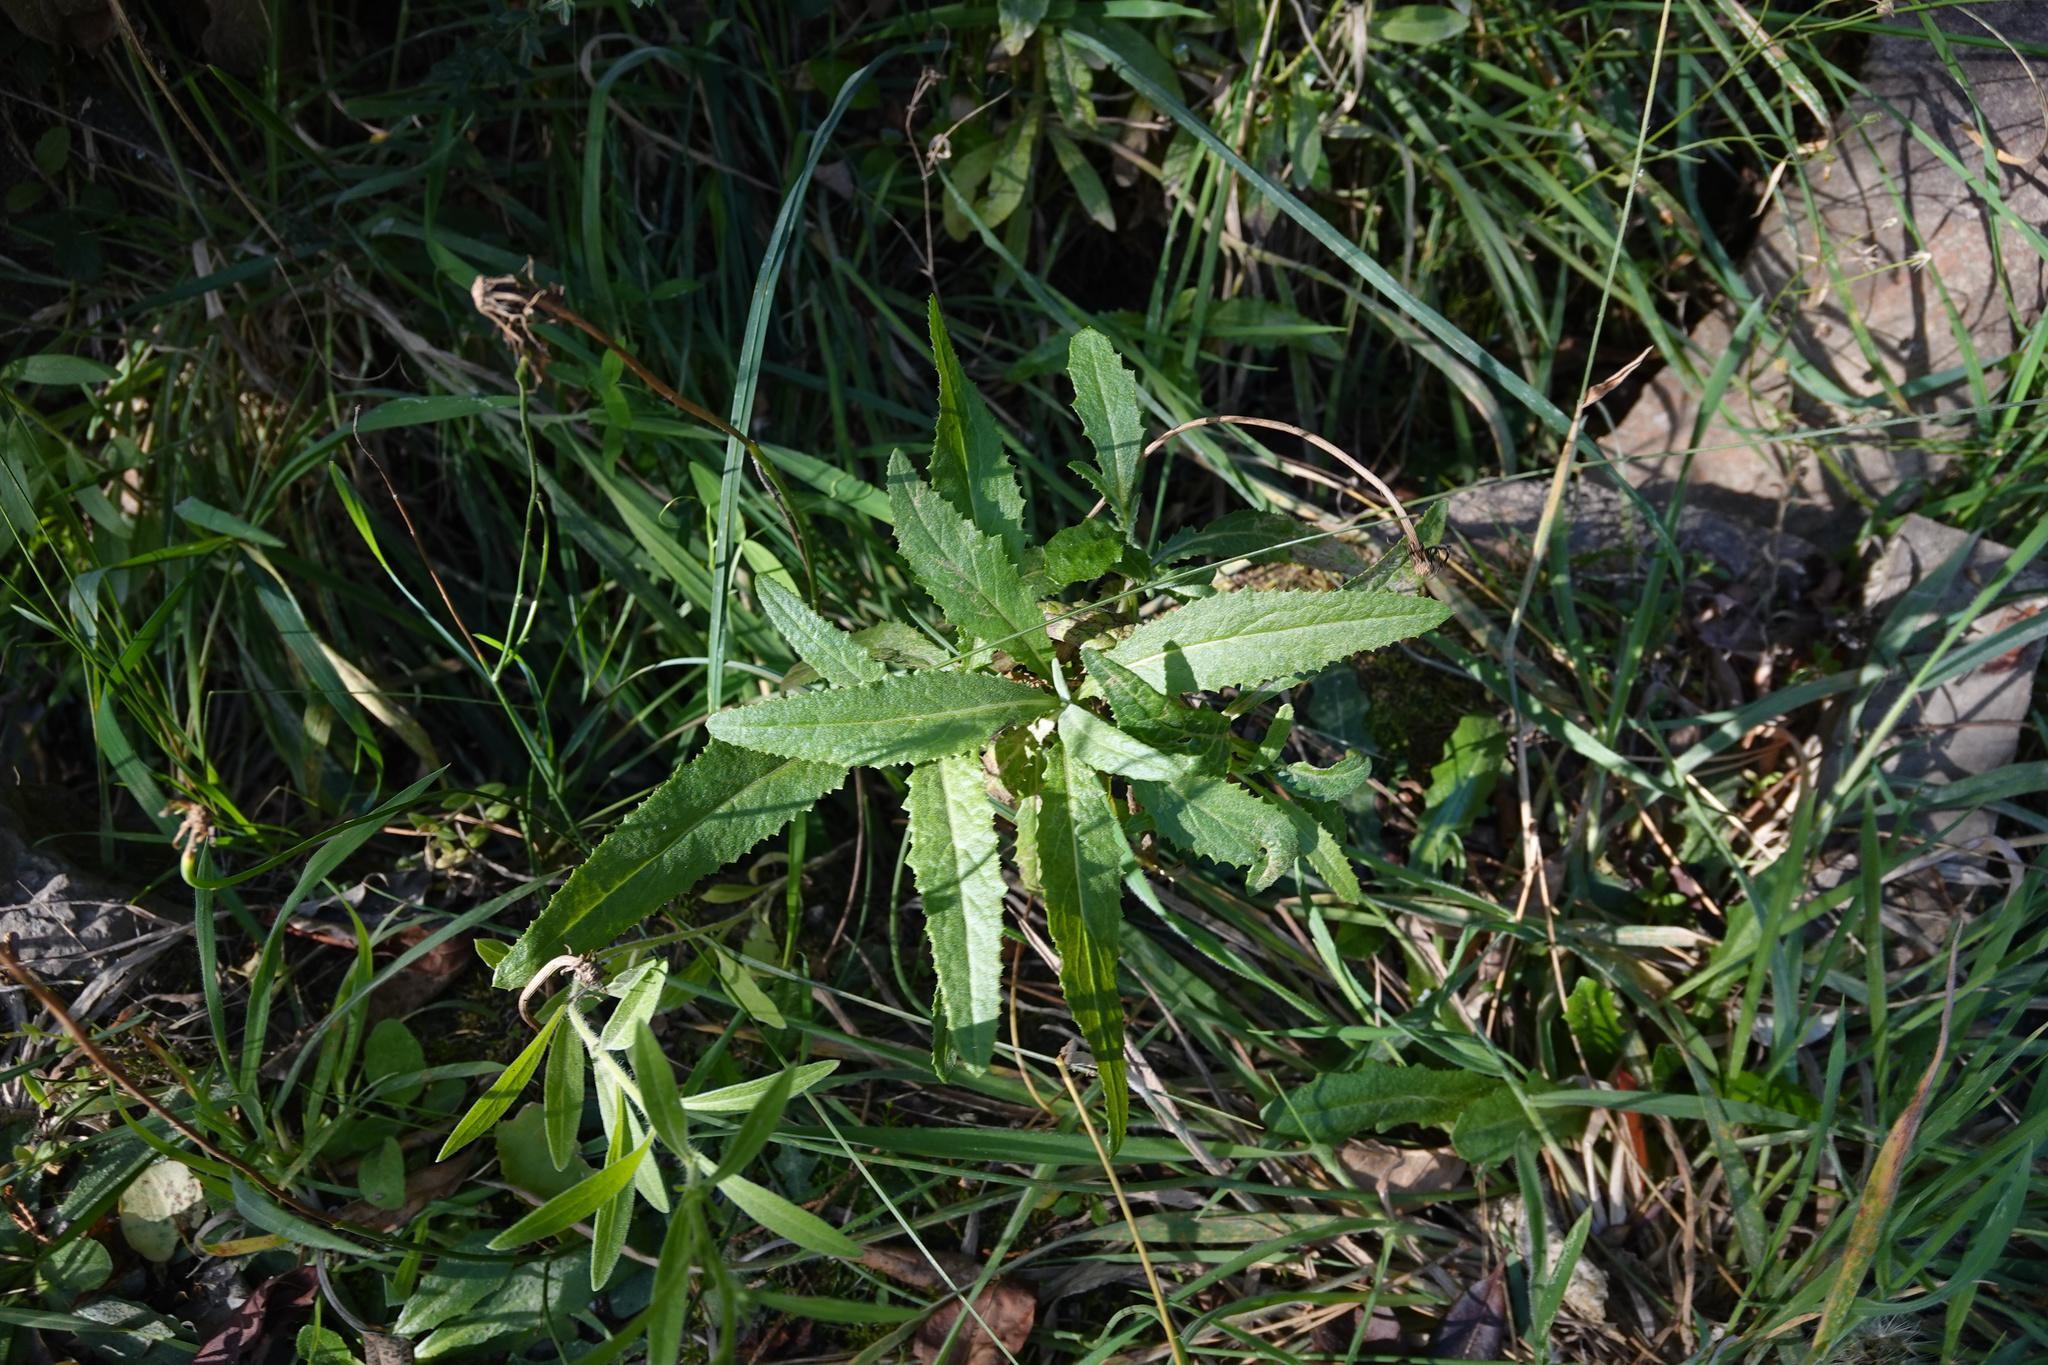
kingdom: Plantae
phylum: Tracheophyta
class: Magnoliopsida
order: Asterales
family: Asteraceae
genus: Senecio
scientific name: Senecio minimus
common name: Toothed fireweed
